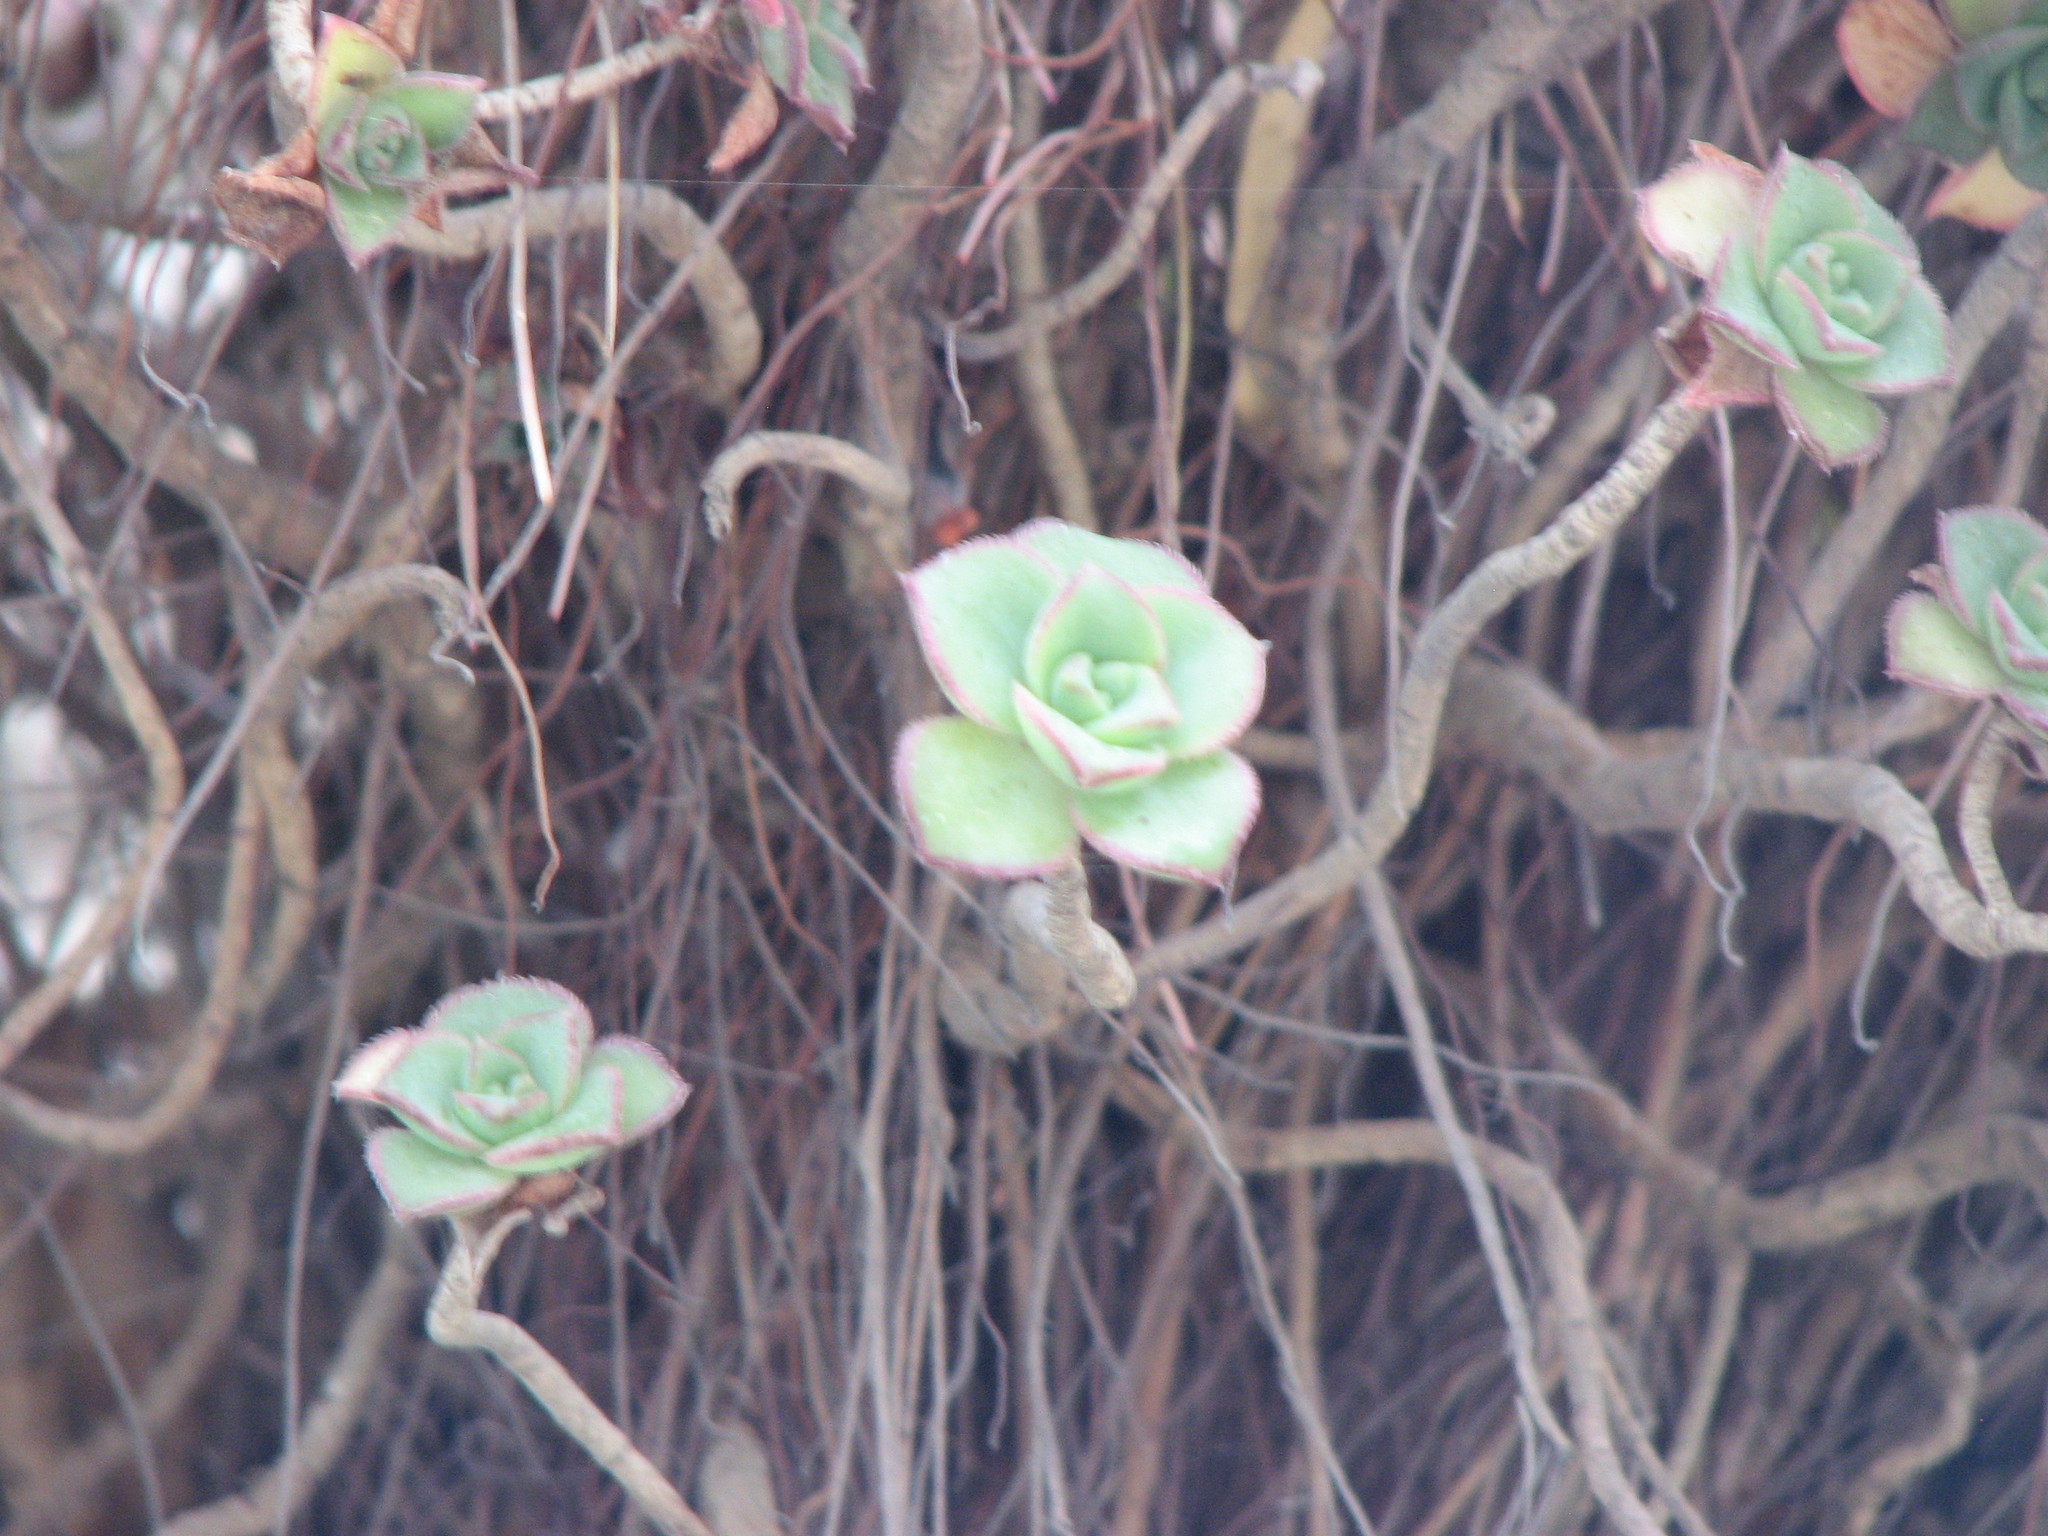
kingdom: Plantae
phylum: Tracheophyta
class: Magnoliopsida
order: Saxifragales
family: Crassulaceae
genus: Aeonium
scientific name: Aeonium haworthii
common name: Haworth's aeonium
